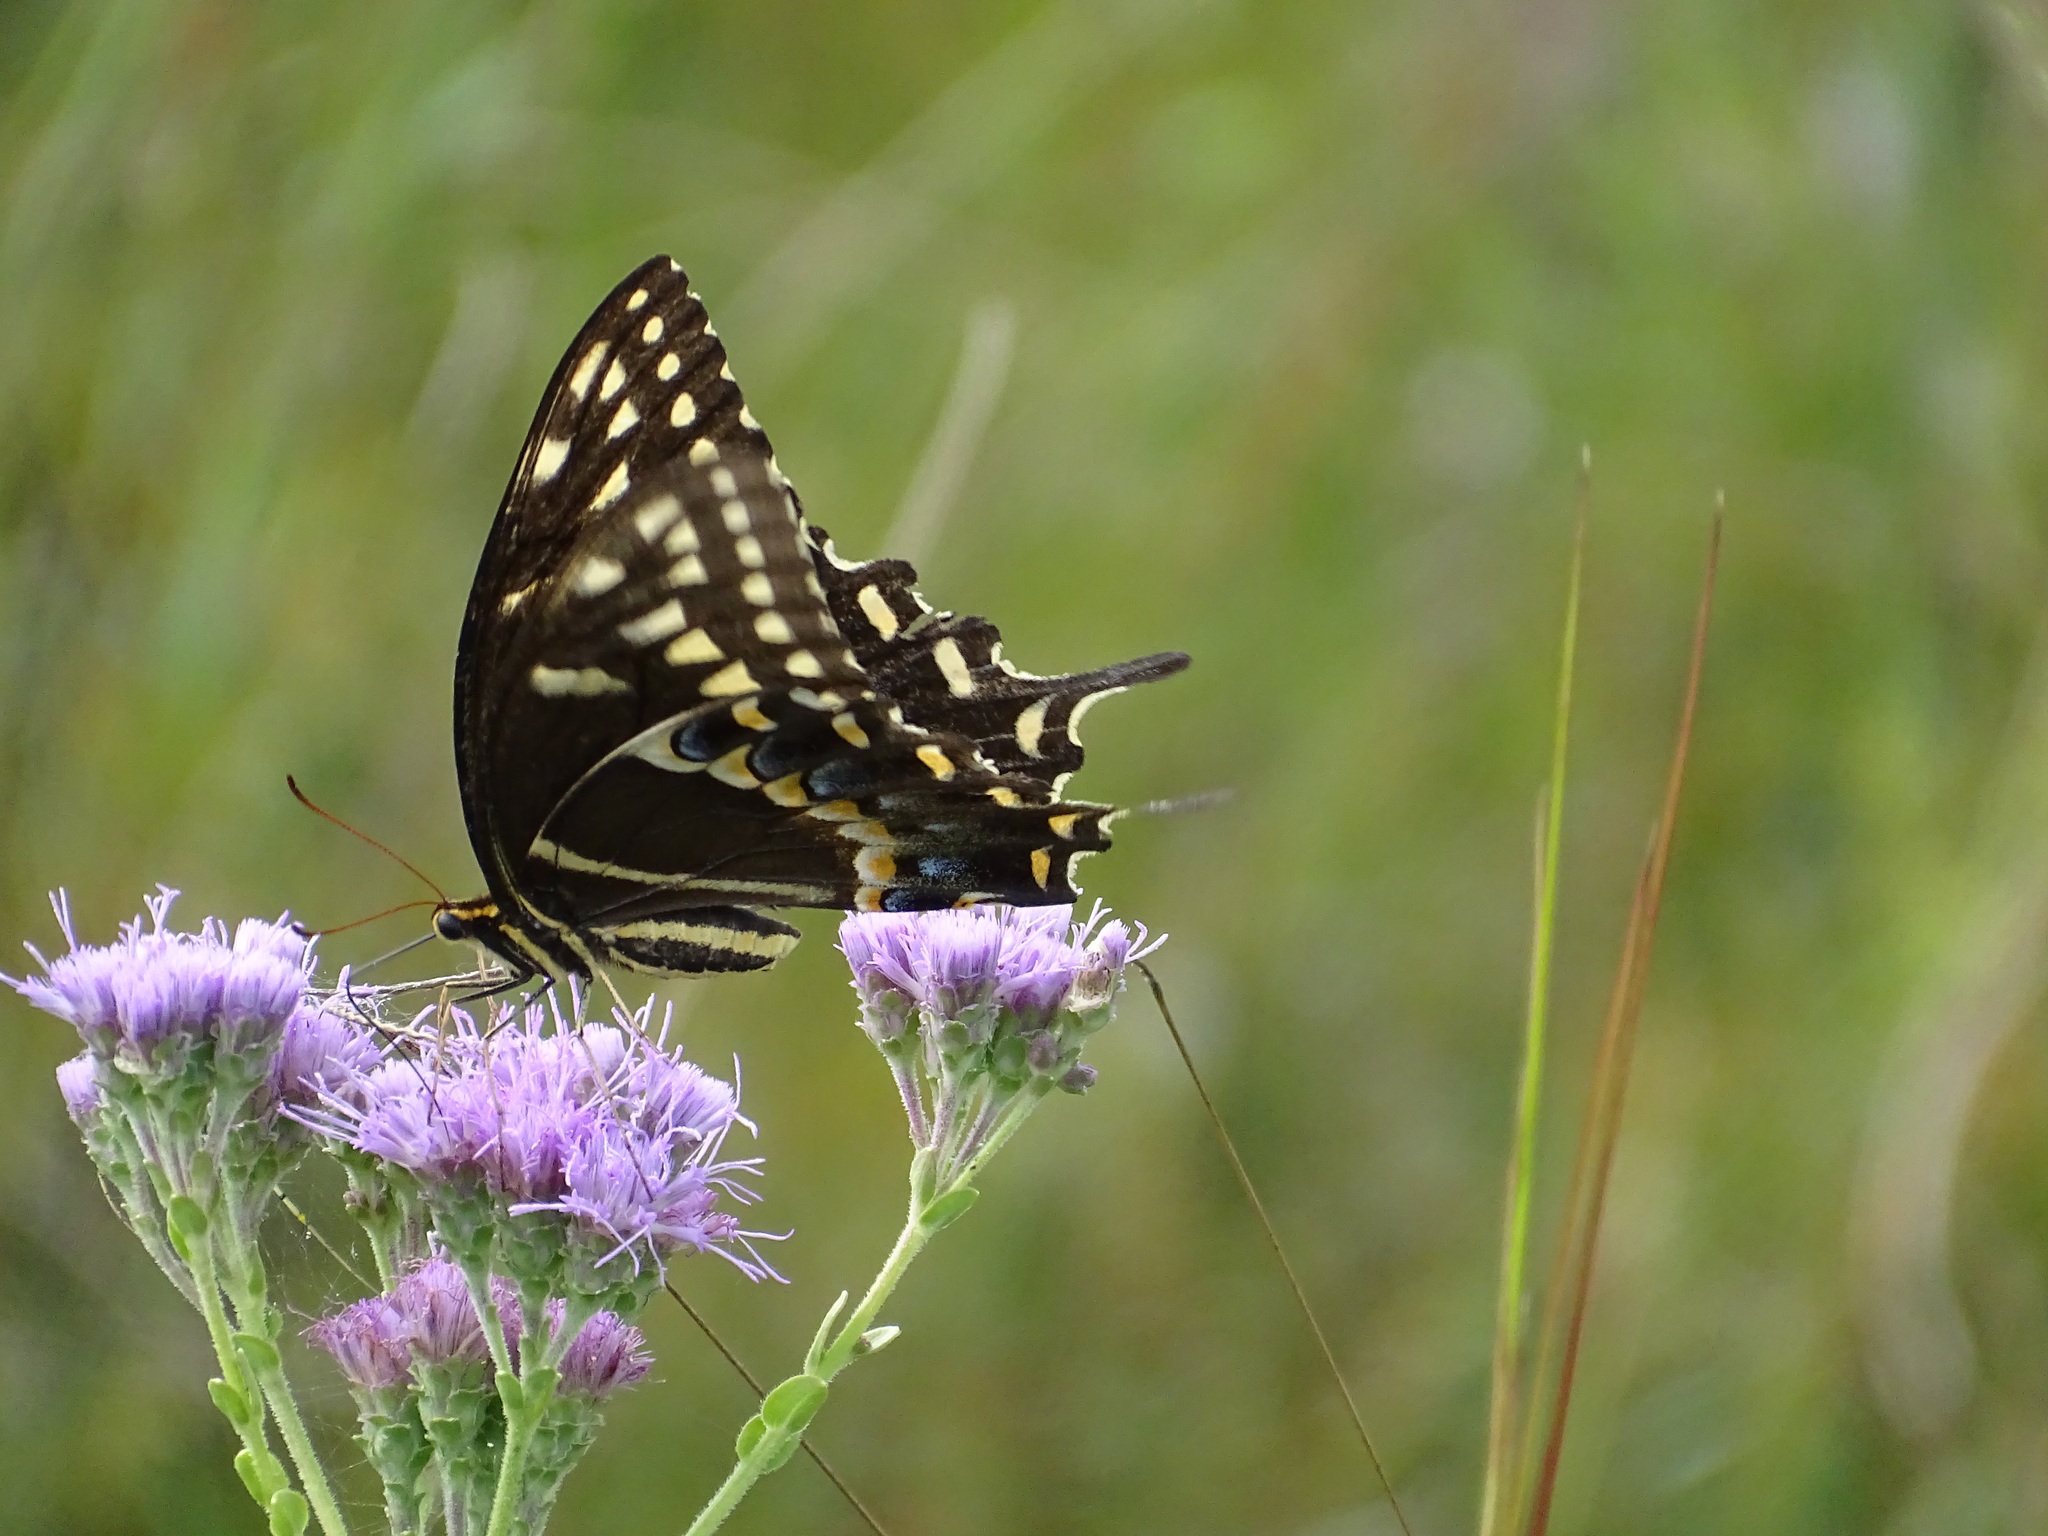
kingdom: Animalia
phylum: Arthropoda
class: Insecta
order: Lepidoptera
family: Papilionidae
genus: Papilio
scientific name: Papilio palamedes
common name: Palamedes swallowtail
